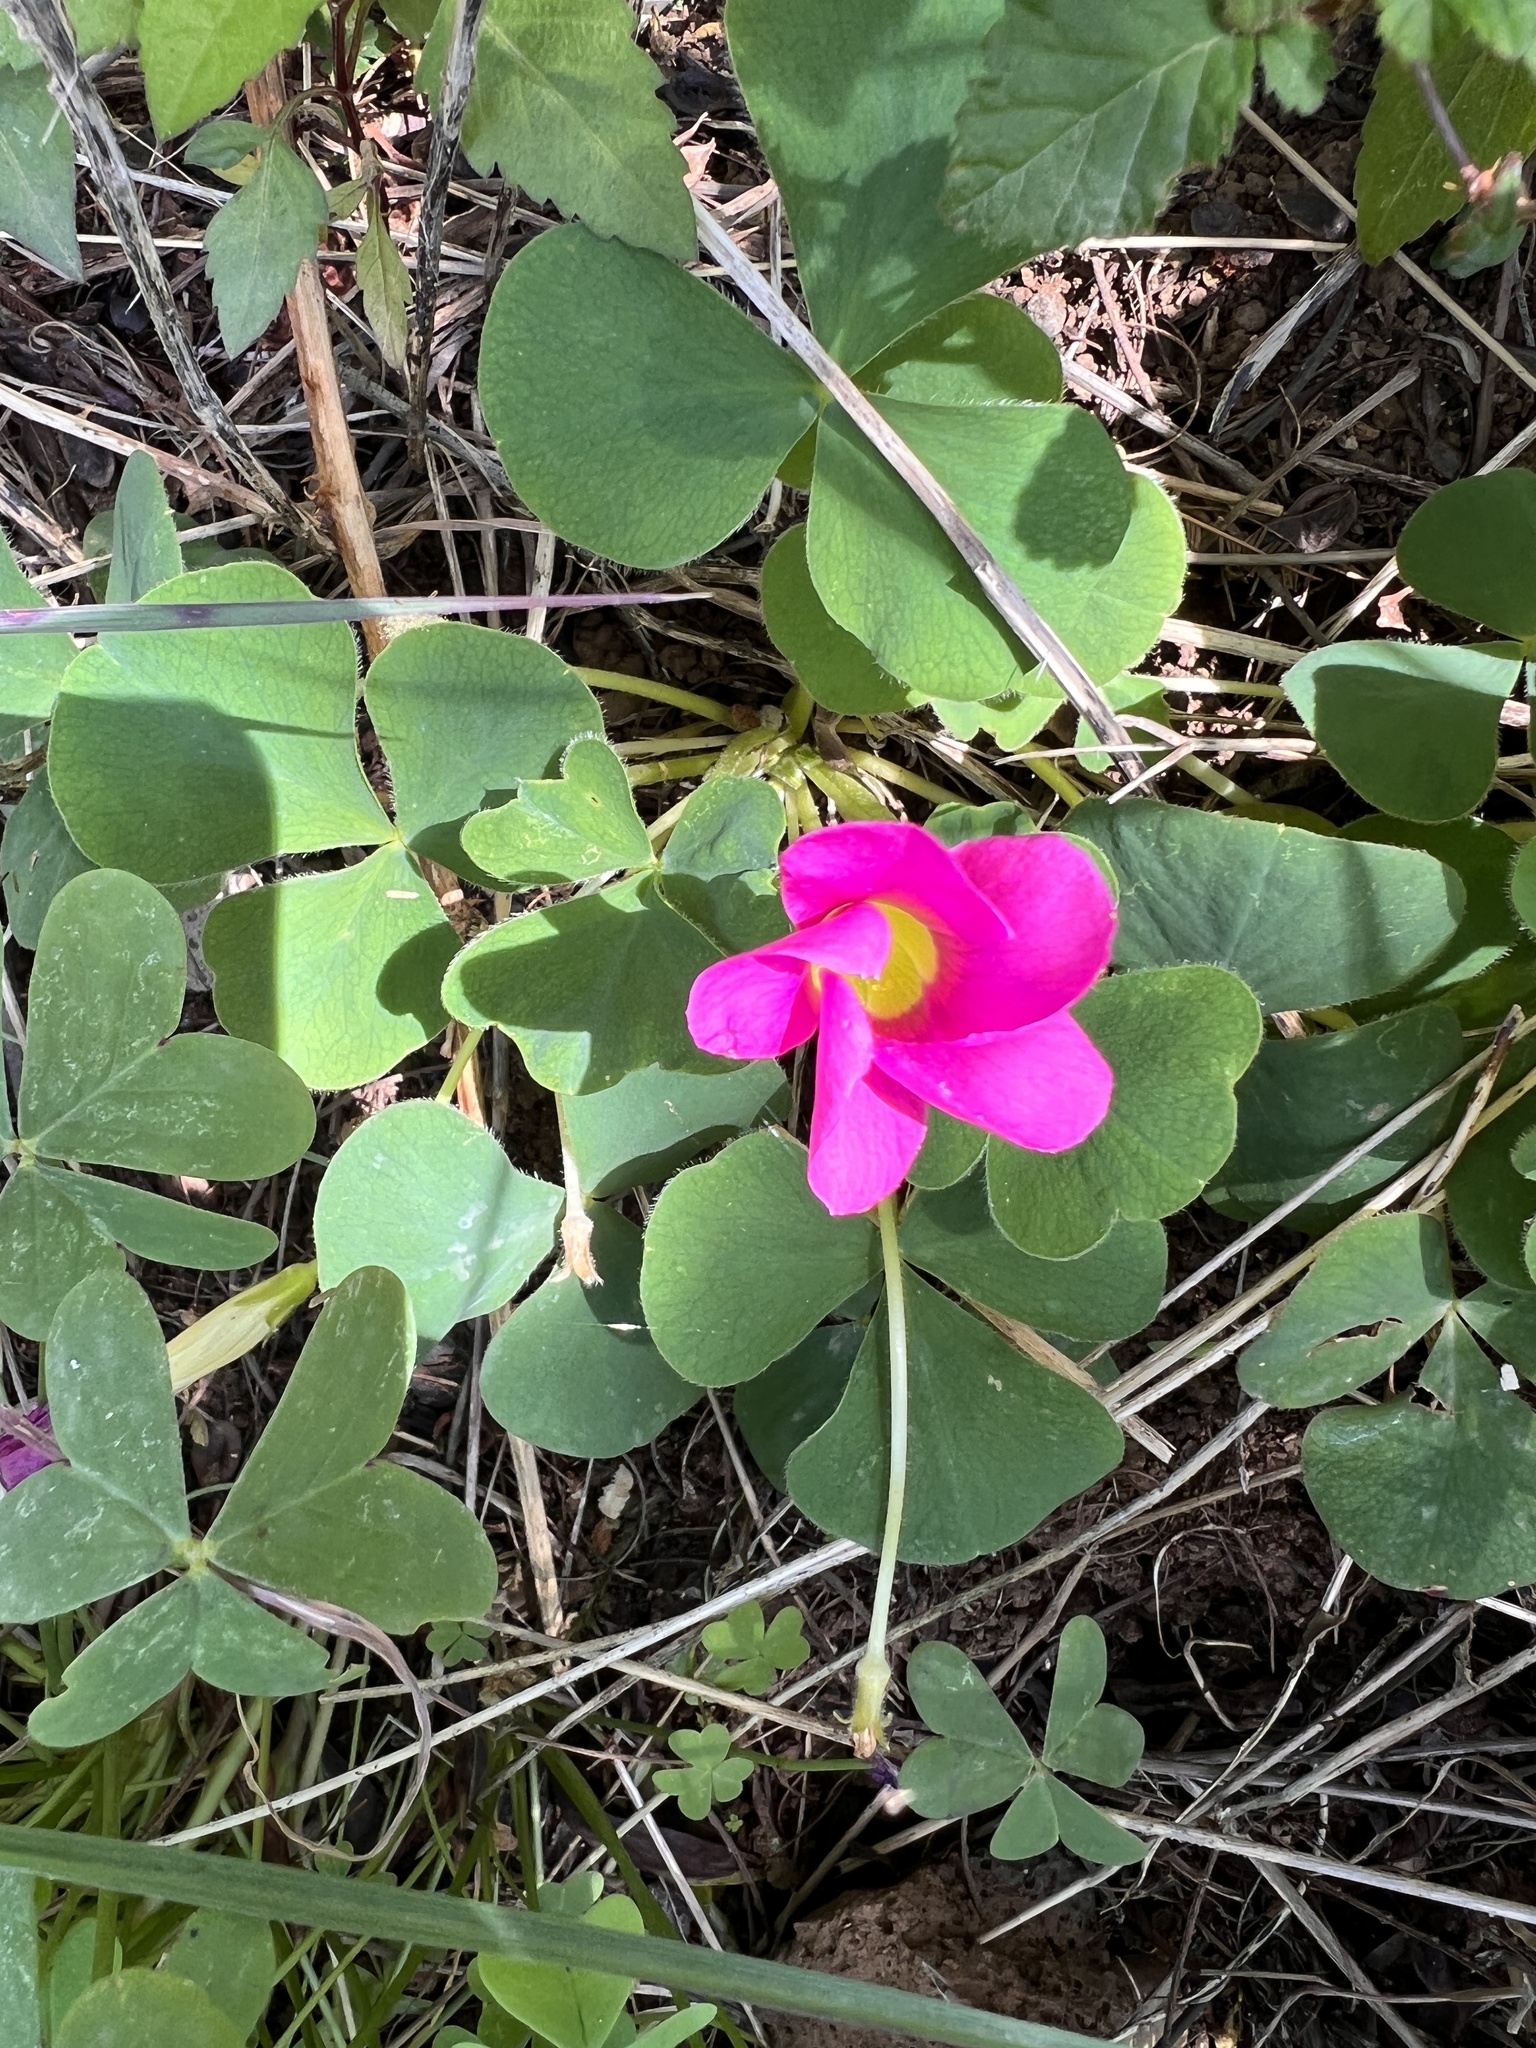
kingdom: Plantae
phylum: Tracheophyta
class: Magnoliopsida
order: Oxalidales
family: Oxalidaceae
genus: Oxalis
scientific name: Oxalis purpurea
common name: Purple woodsorrel
